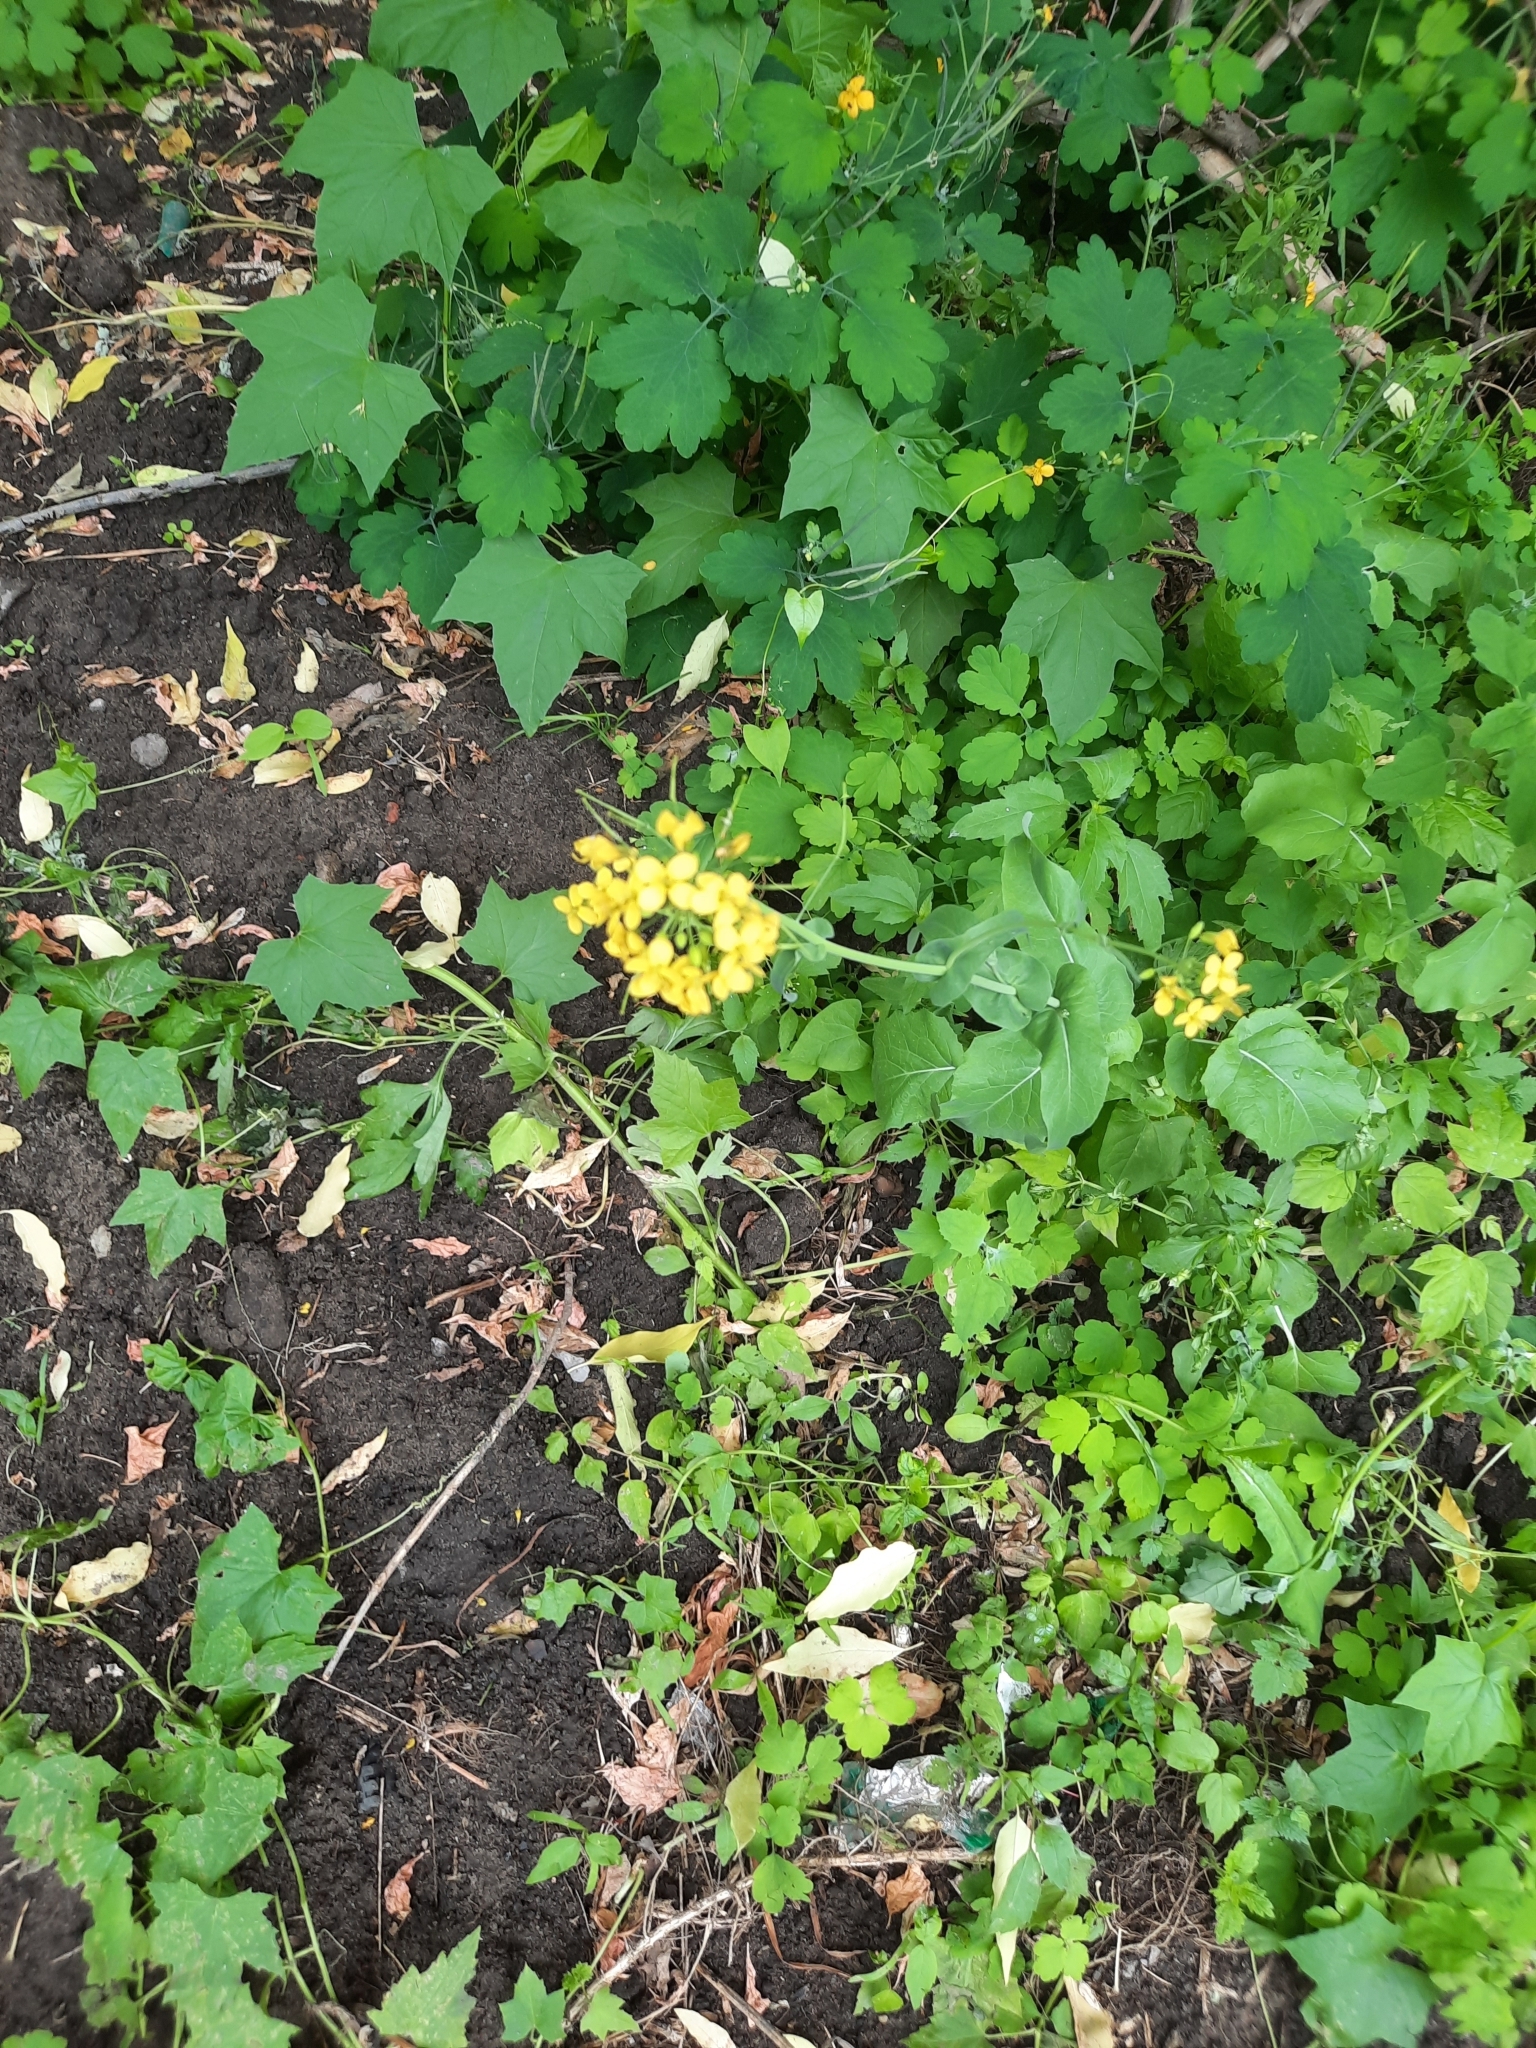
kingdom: Plantae
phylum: Tracheophyta
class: Magnoliopsida
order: Brassicales
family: Brassicaceae
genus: Brassica
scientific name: Brassica rapa
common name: Field mustard
